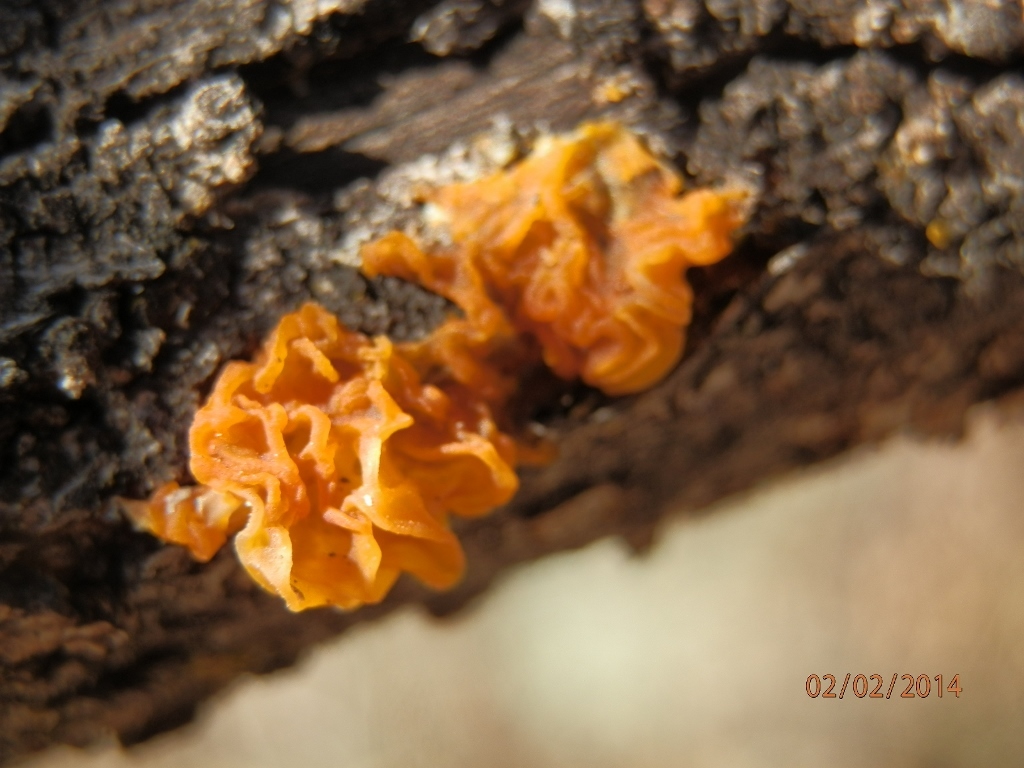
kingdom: Fungi
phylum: Basidiomycota
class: Tremellomycetes
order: Tremellales
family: Tremellaceae
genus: Tremella
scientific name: Tremella mesenterica
